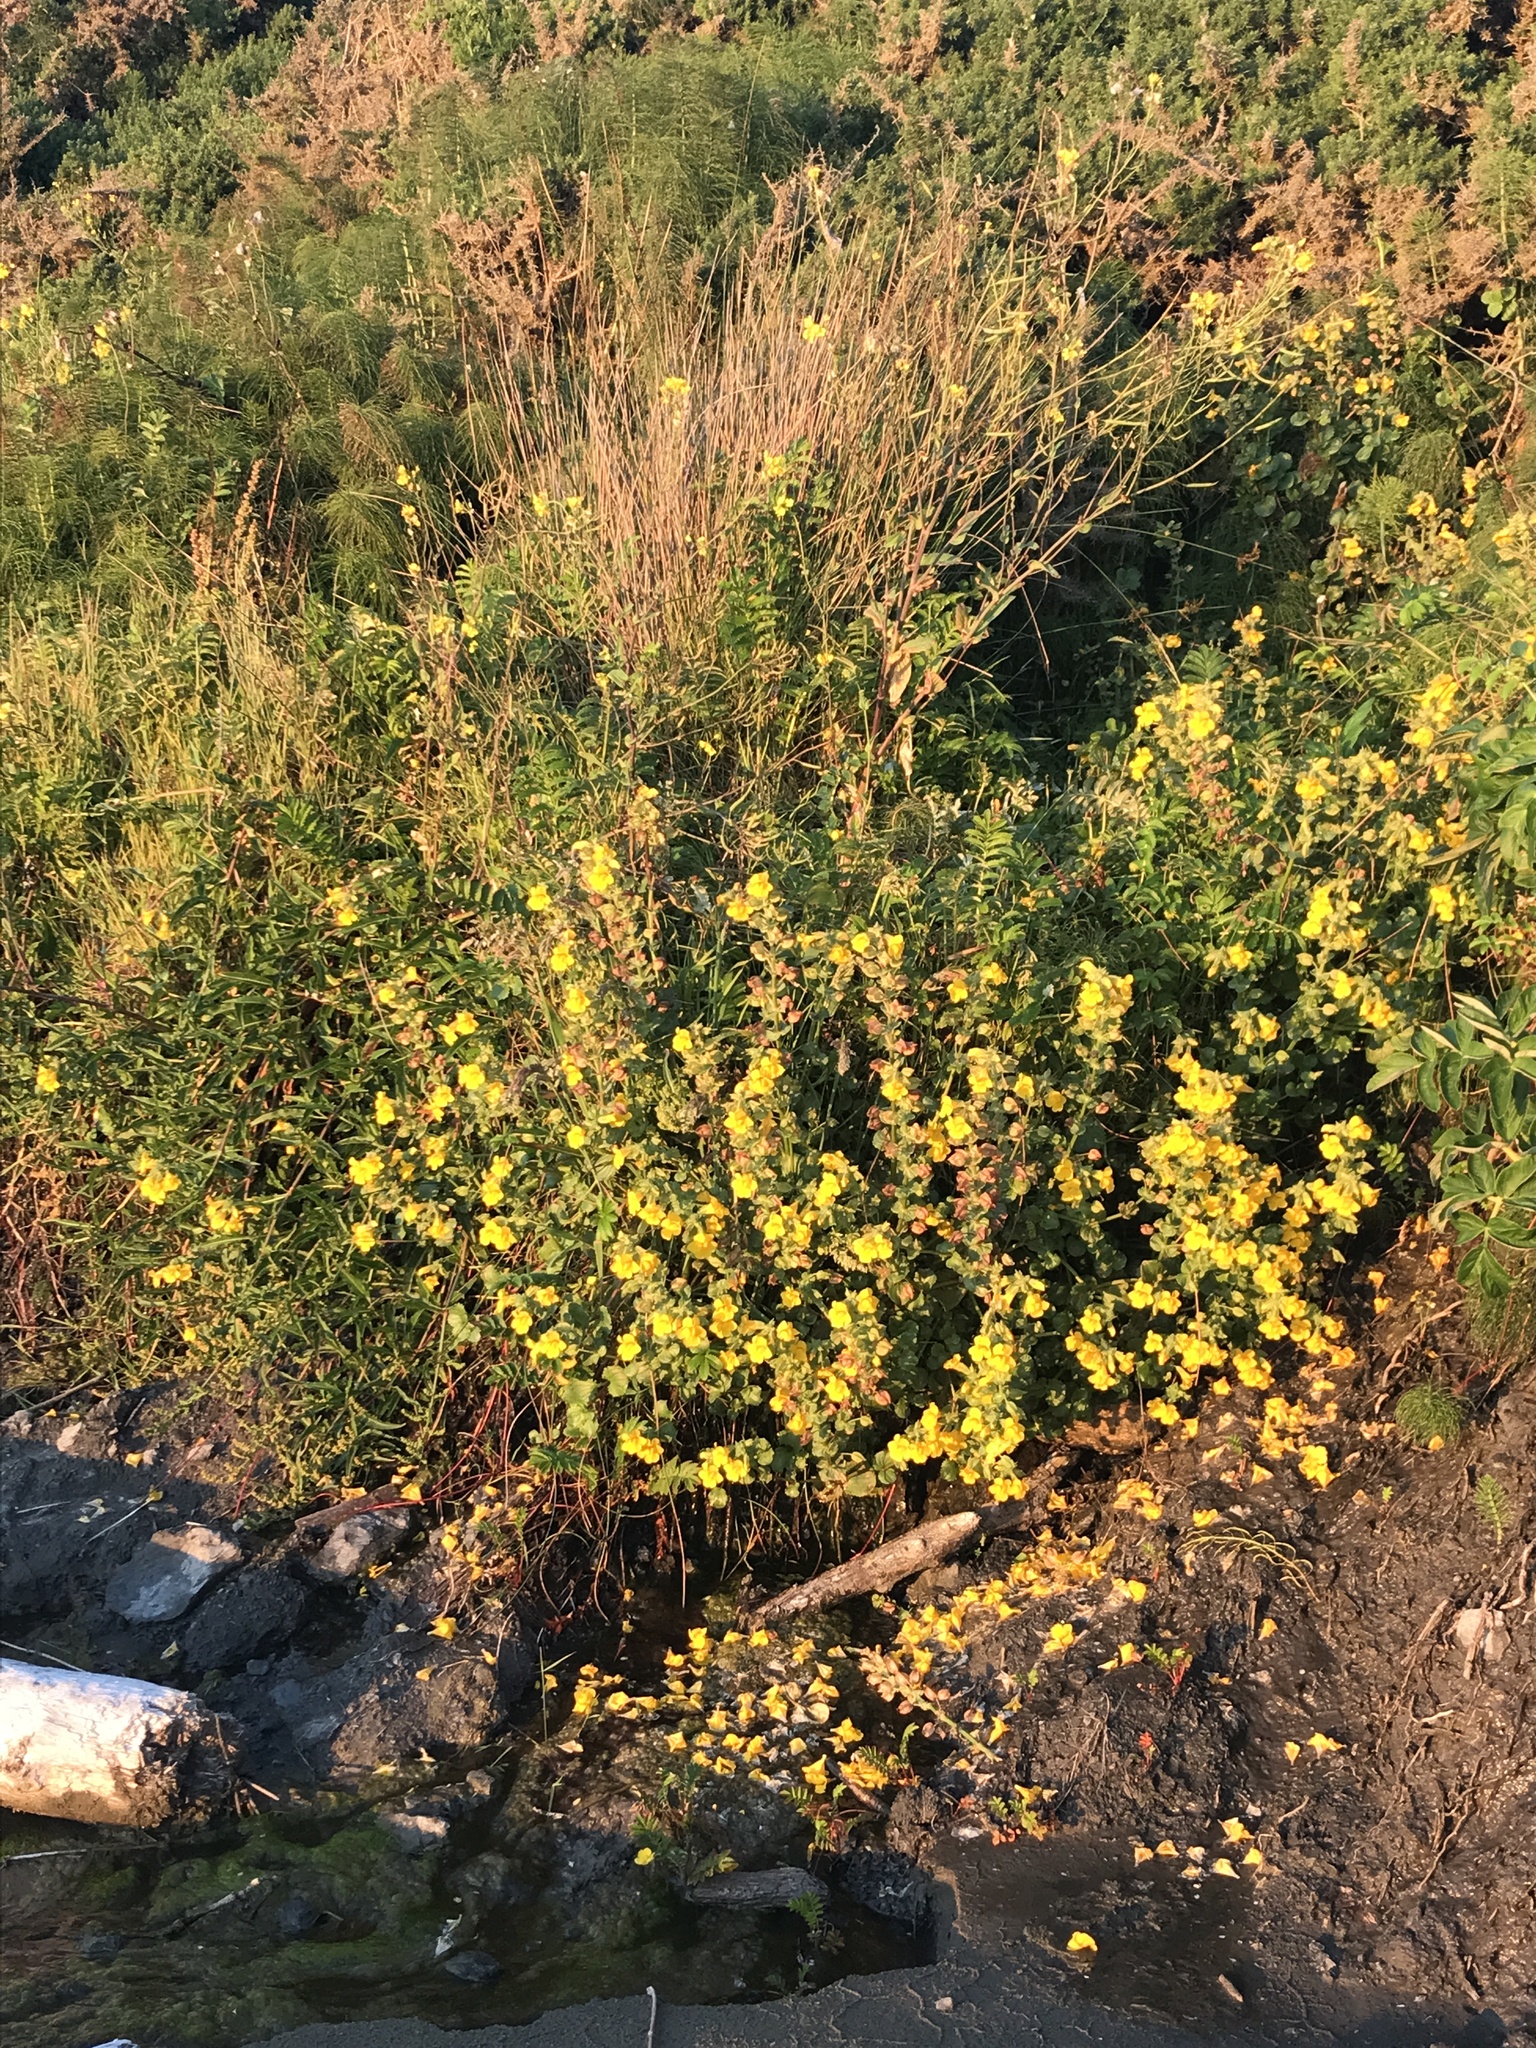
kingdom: Plantae
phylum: Tracheophyta
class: Magnoliopsida
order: Lamiales
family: Phrymaceae
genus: Erythranthe
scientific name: Erythranthe grandis
